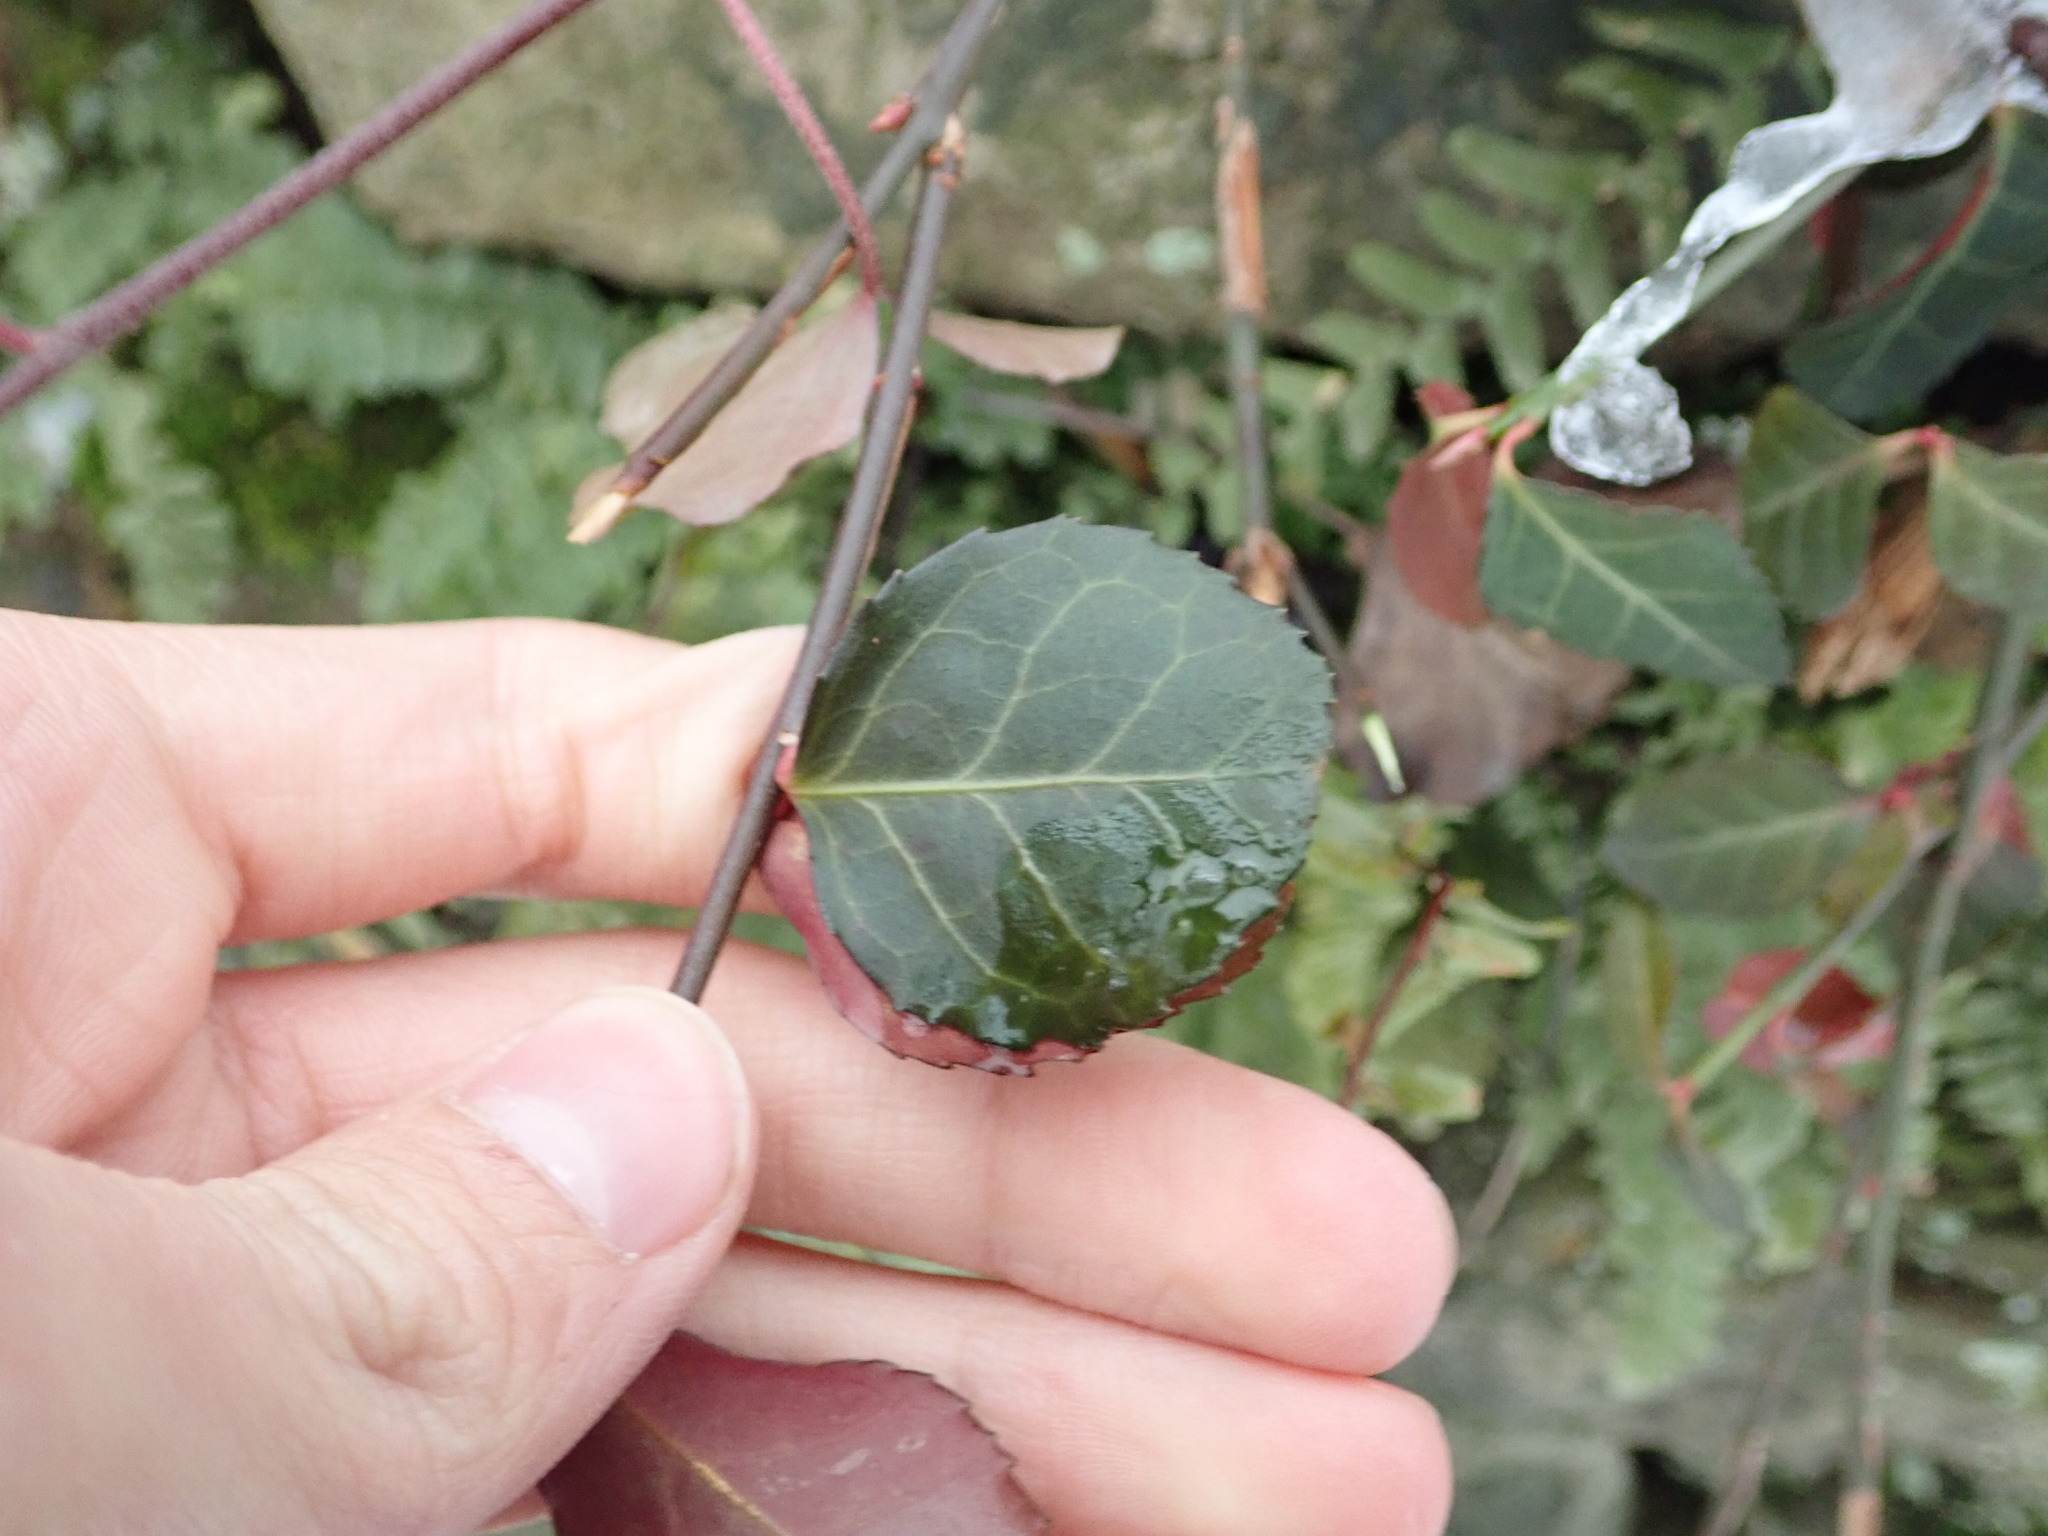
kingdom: Plantae
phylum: Tracheophyta
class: Magnoliopsida
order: Celastrales
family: Celastraceae
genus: Euonymus
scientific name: Euonymus fortunei
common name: Climbing euonymus
